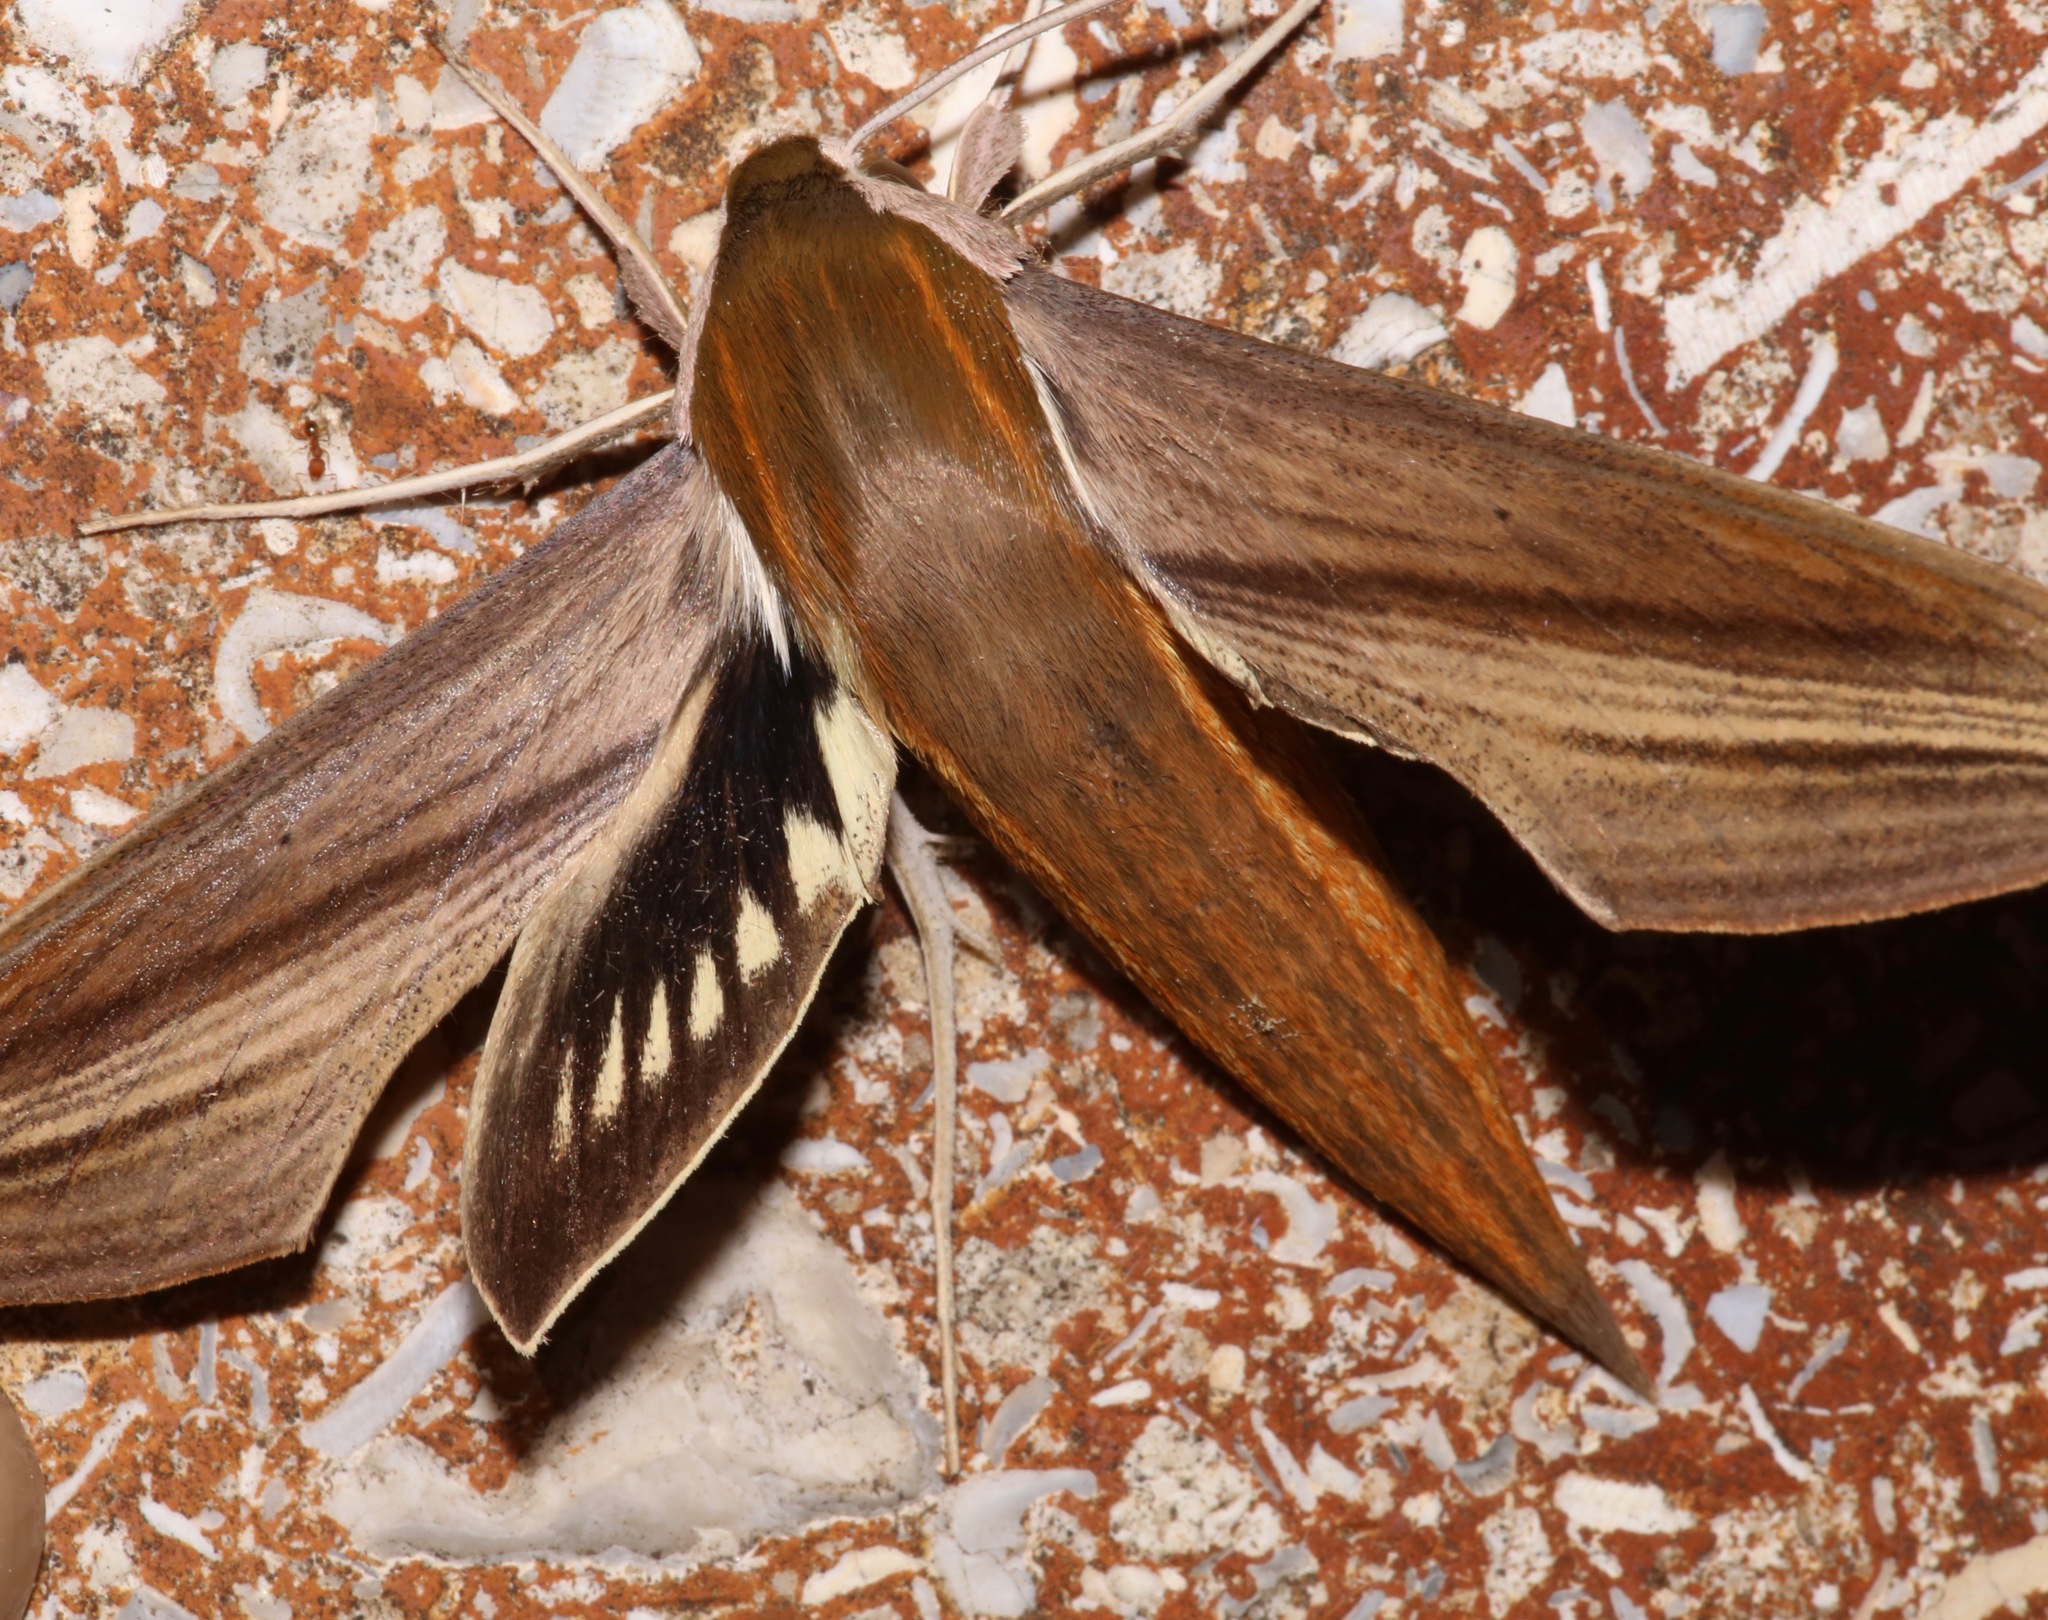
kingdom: Animalia
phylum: Arthropoda
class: Insecta
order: Lepidoptera
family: Sphingidae
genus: Xylophanes
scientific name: Xylophanes tersa
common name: Tersa sphinx
